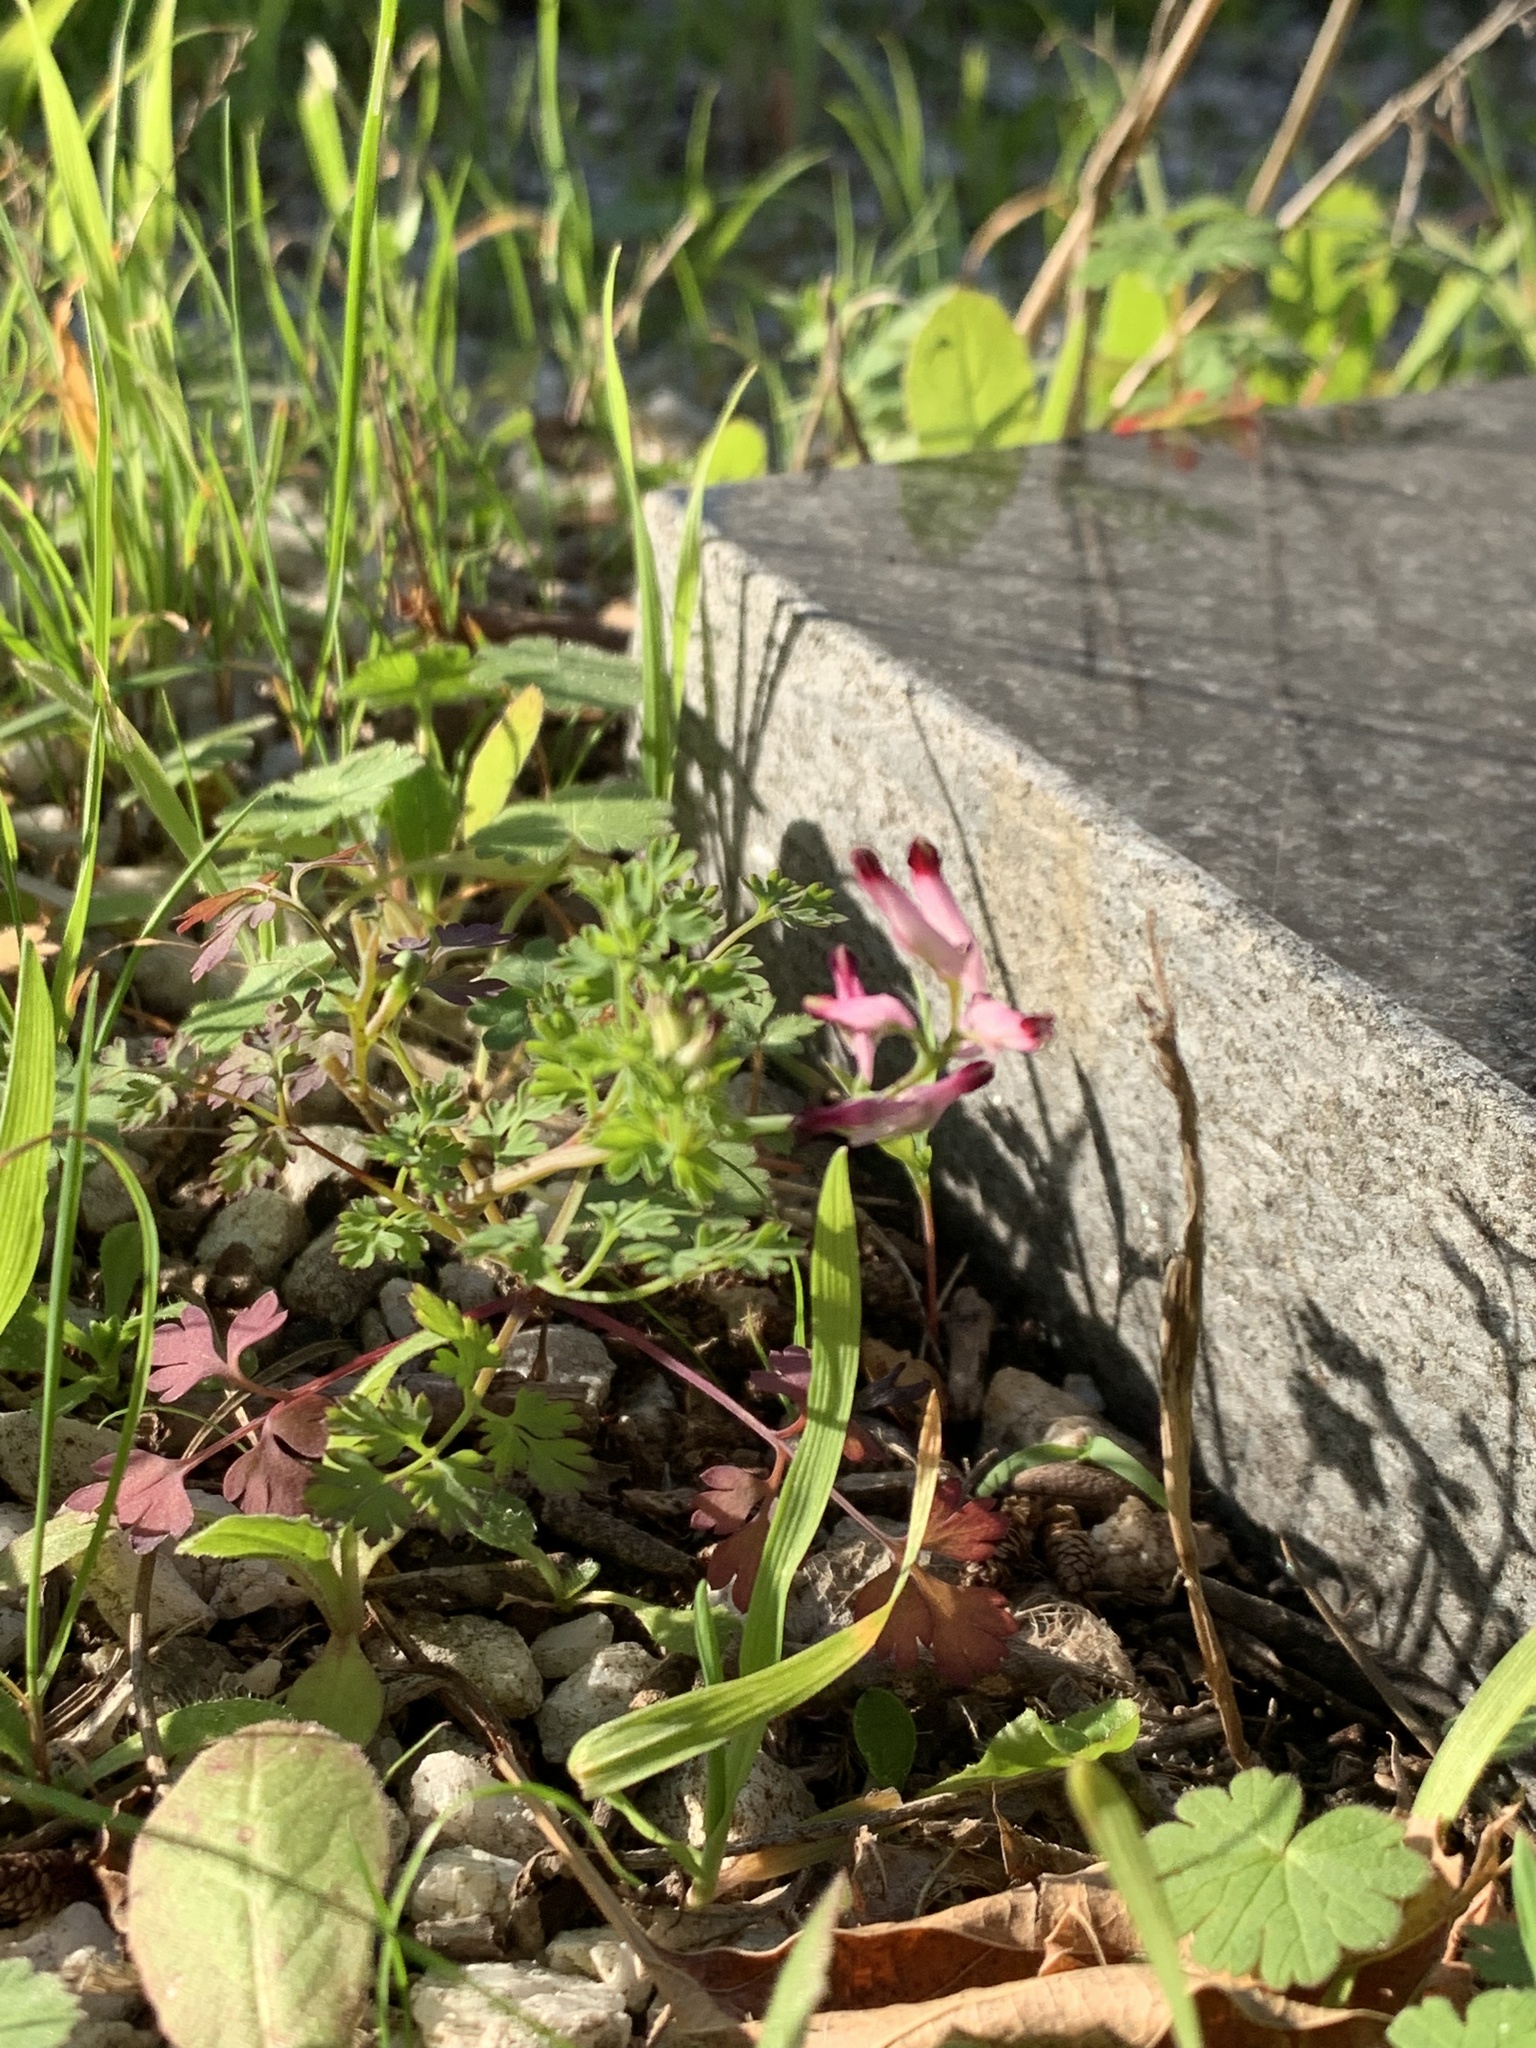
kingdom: Plantae
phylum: Tracheophyta
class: Magnoliopsida
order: Ranunculales
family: Papaveraceae
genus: Fumaria
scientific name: Fumaria muralis
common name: Common ramping-fumitory
